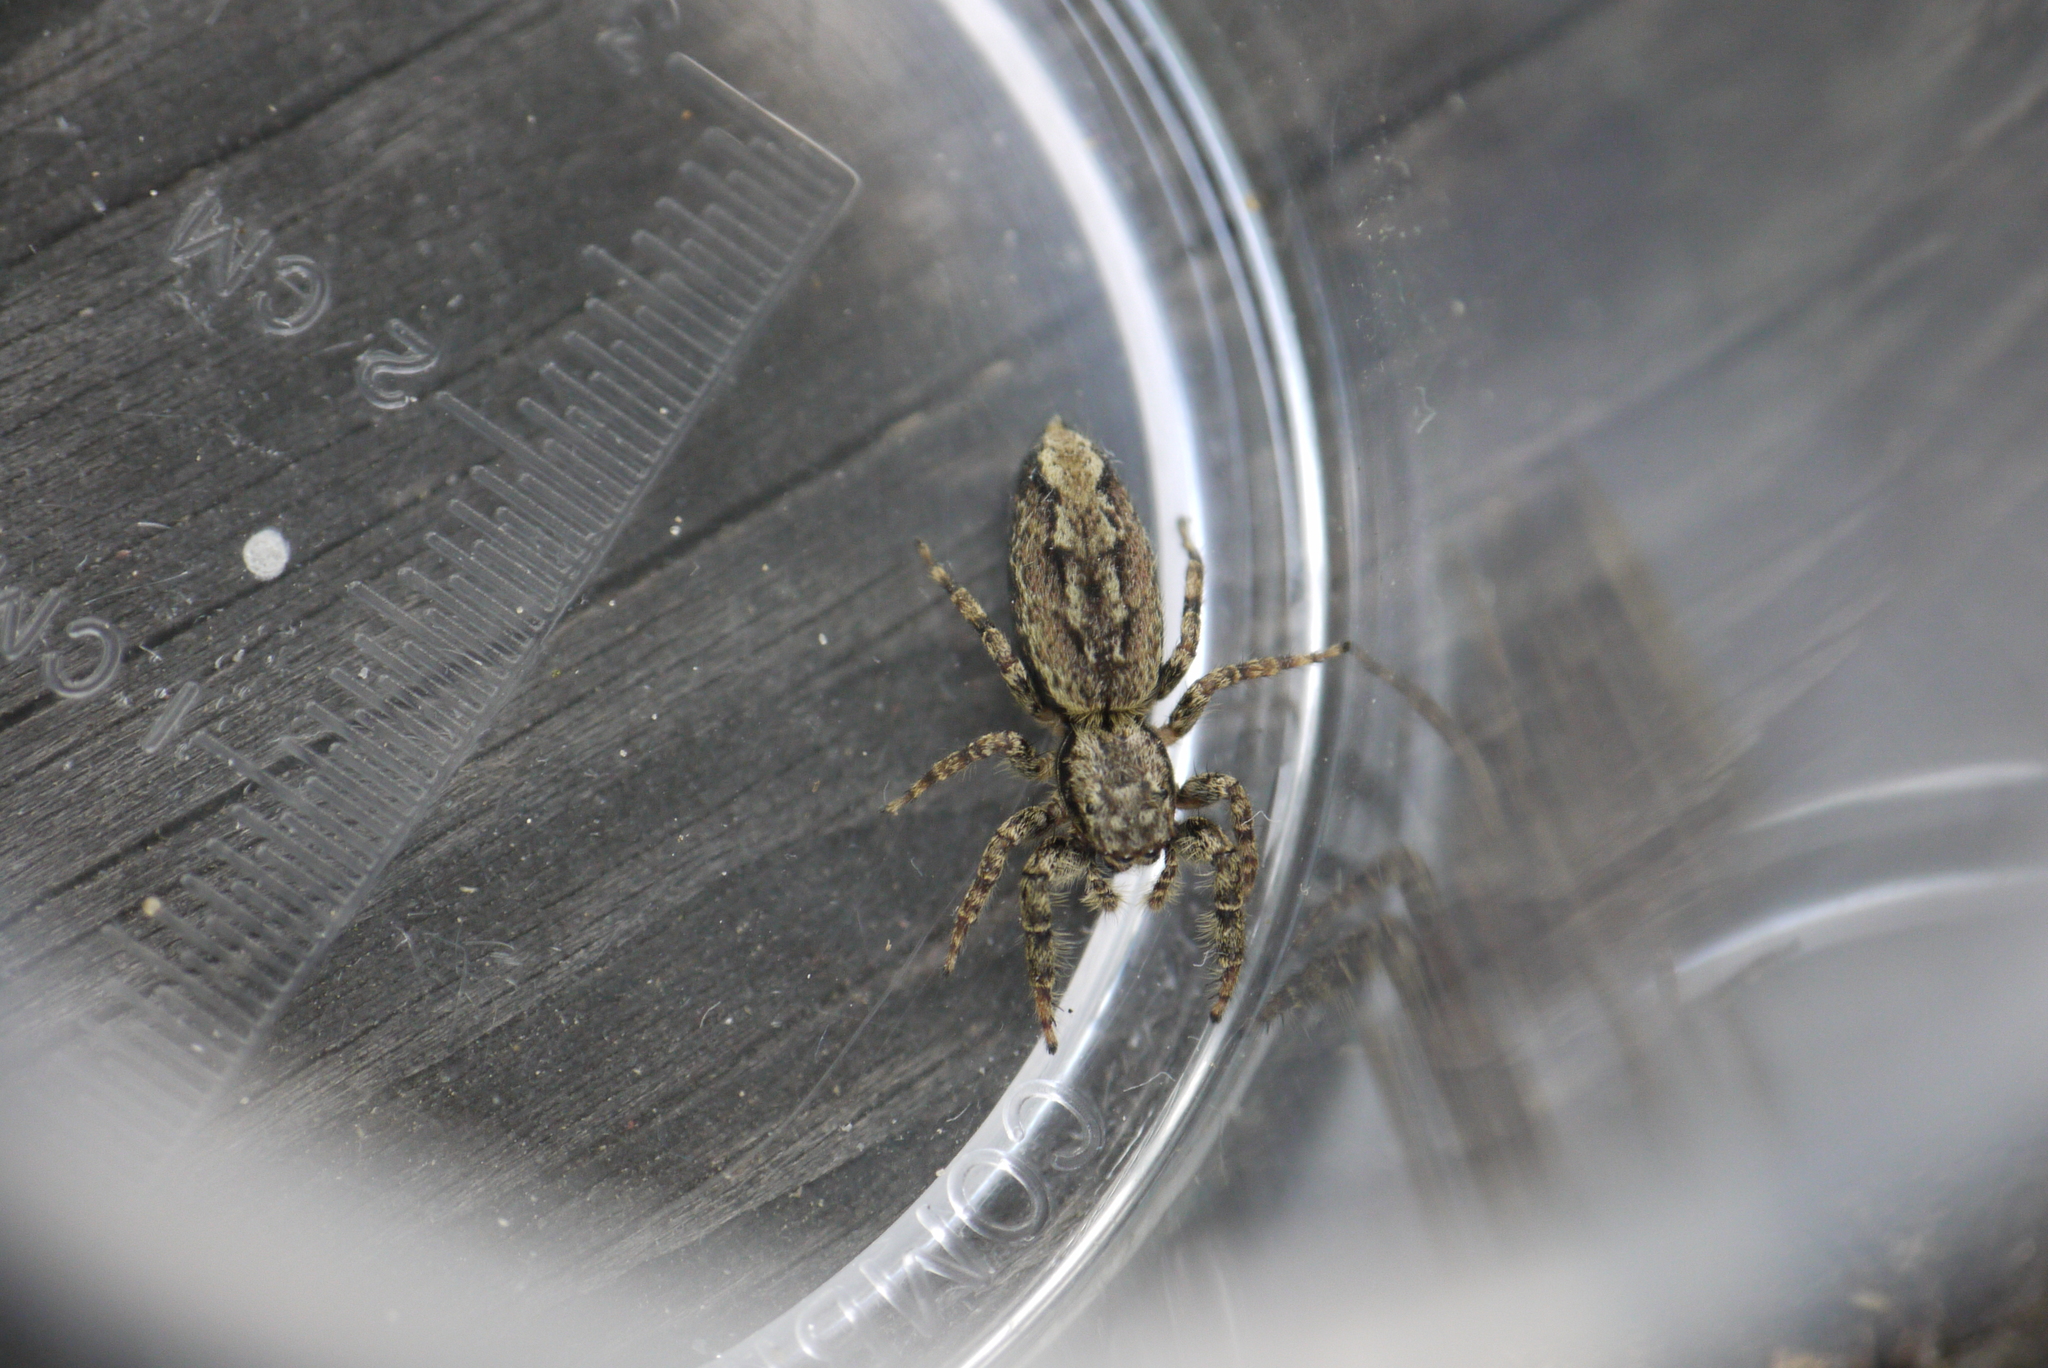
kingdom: Animalia
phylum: Arthropoda
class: Arachnida
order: Araneae
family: Salticidae
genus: Marpissa
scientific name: Marpissa muscosa
